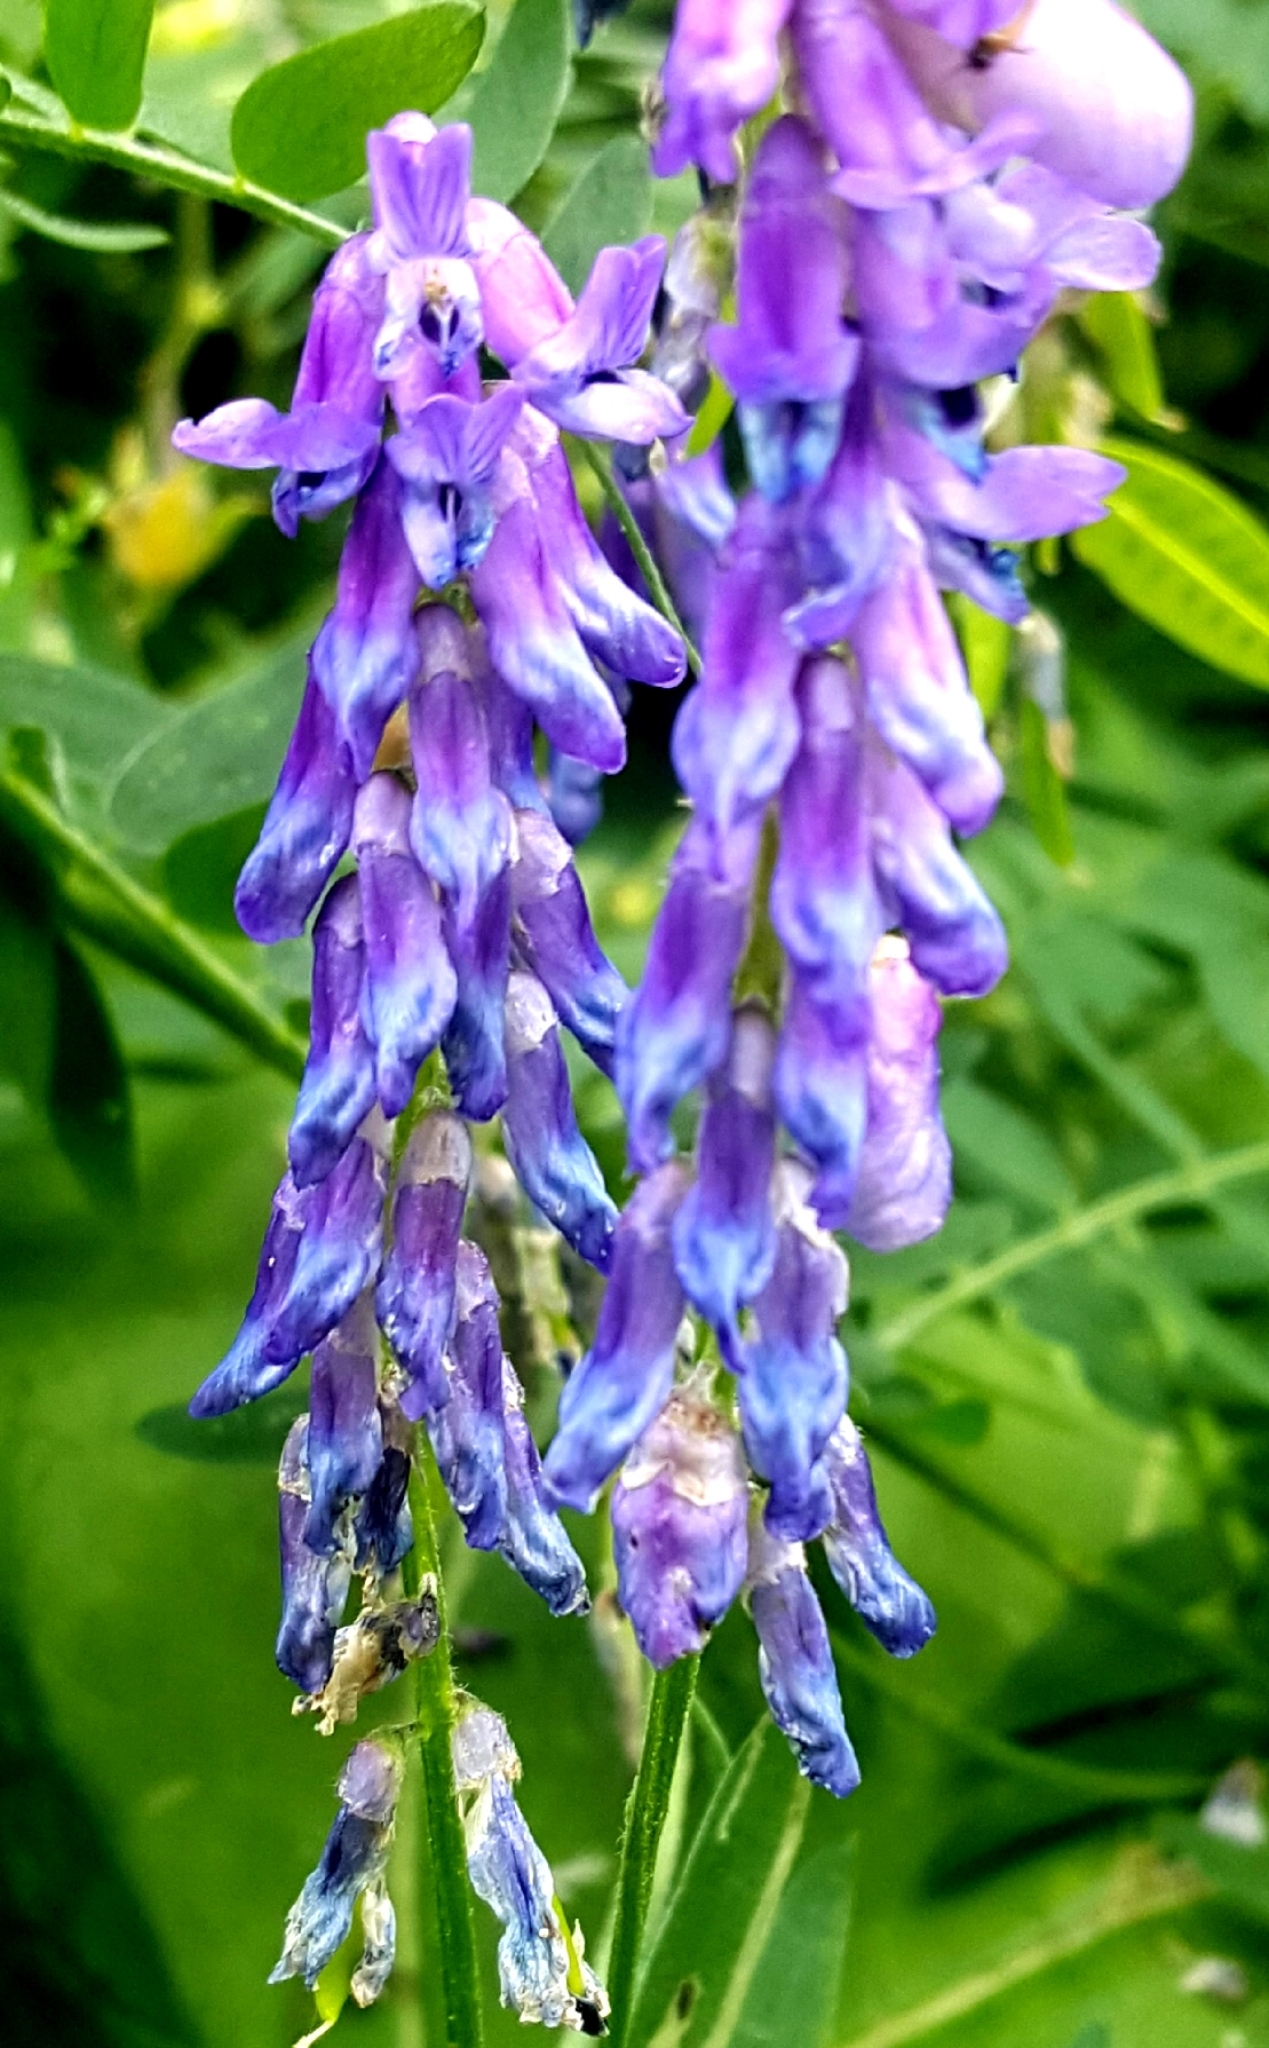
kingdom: Plantae
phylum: Tracheophyta
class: Magnoliopsida
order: Fabales
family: Fabaceae
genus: Vicia
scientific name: Vicia cracca
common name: Bird vetch
